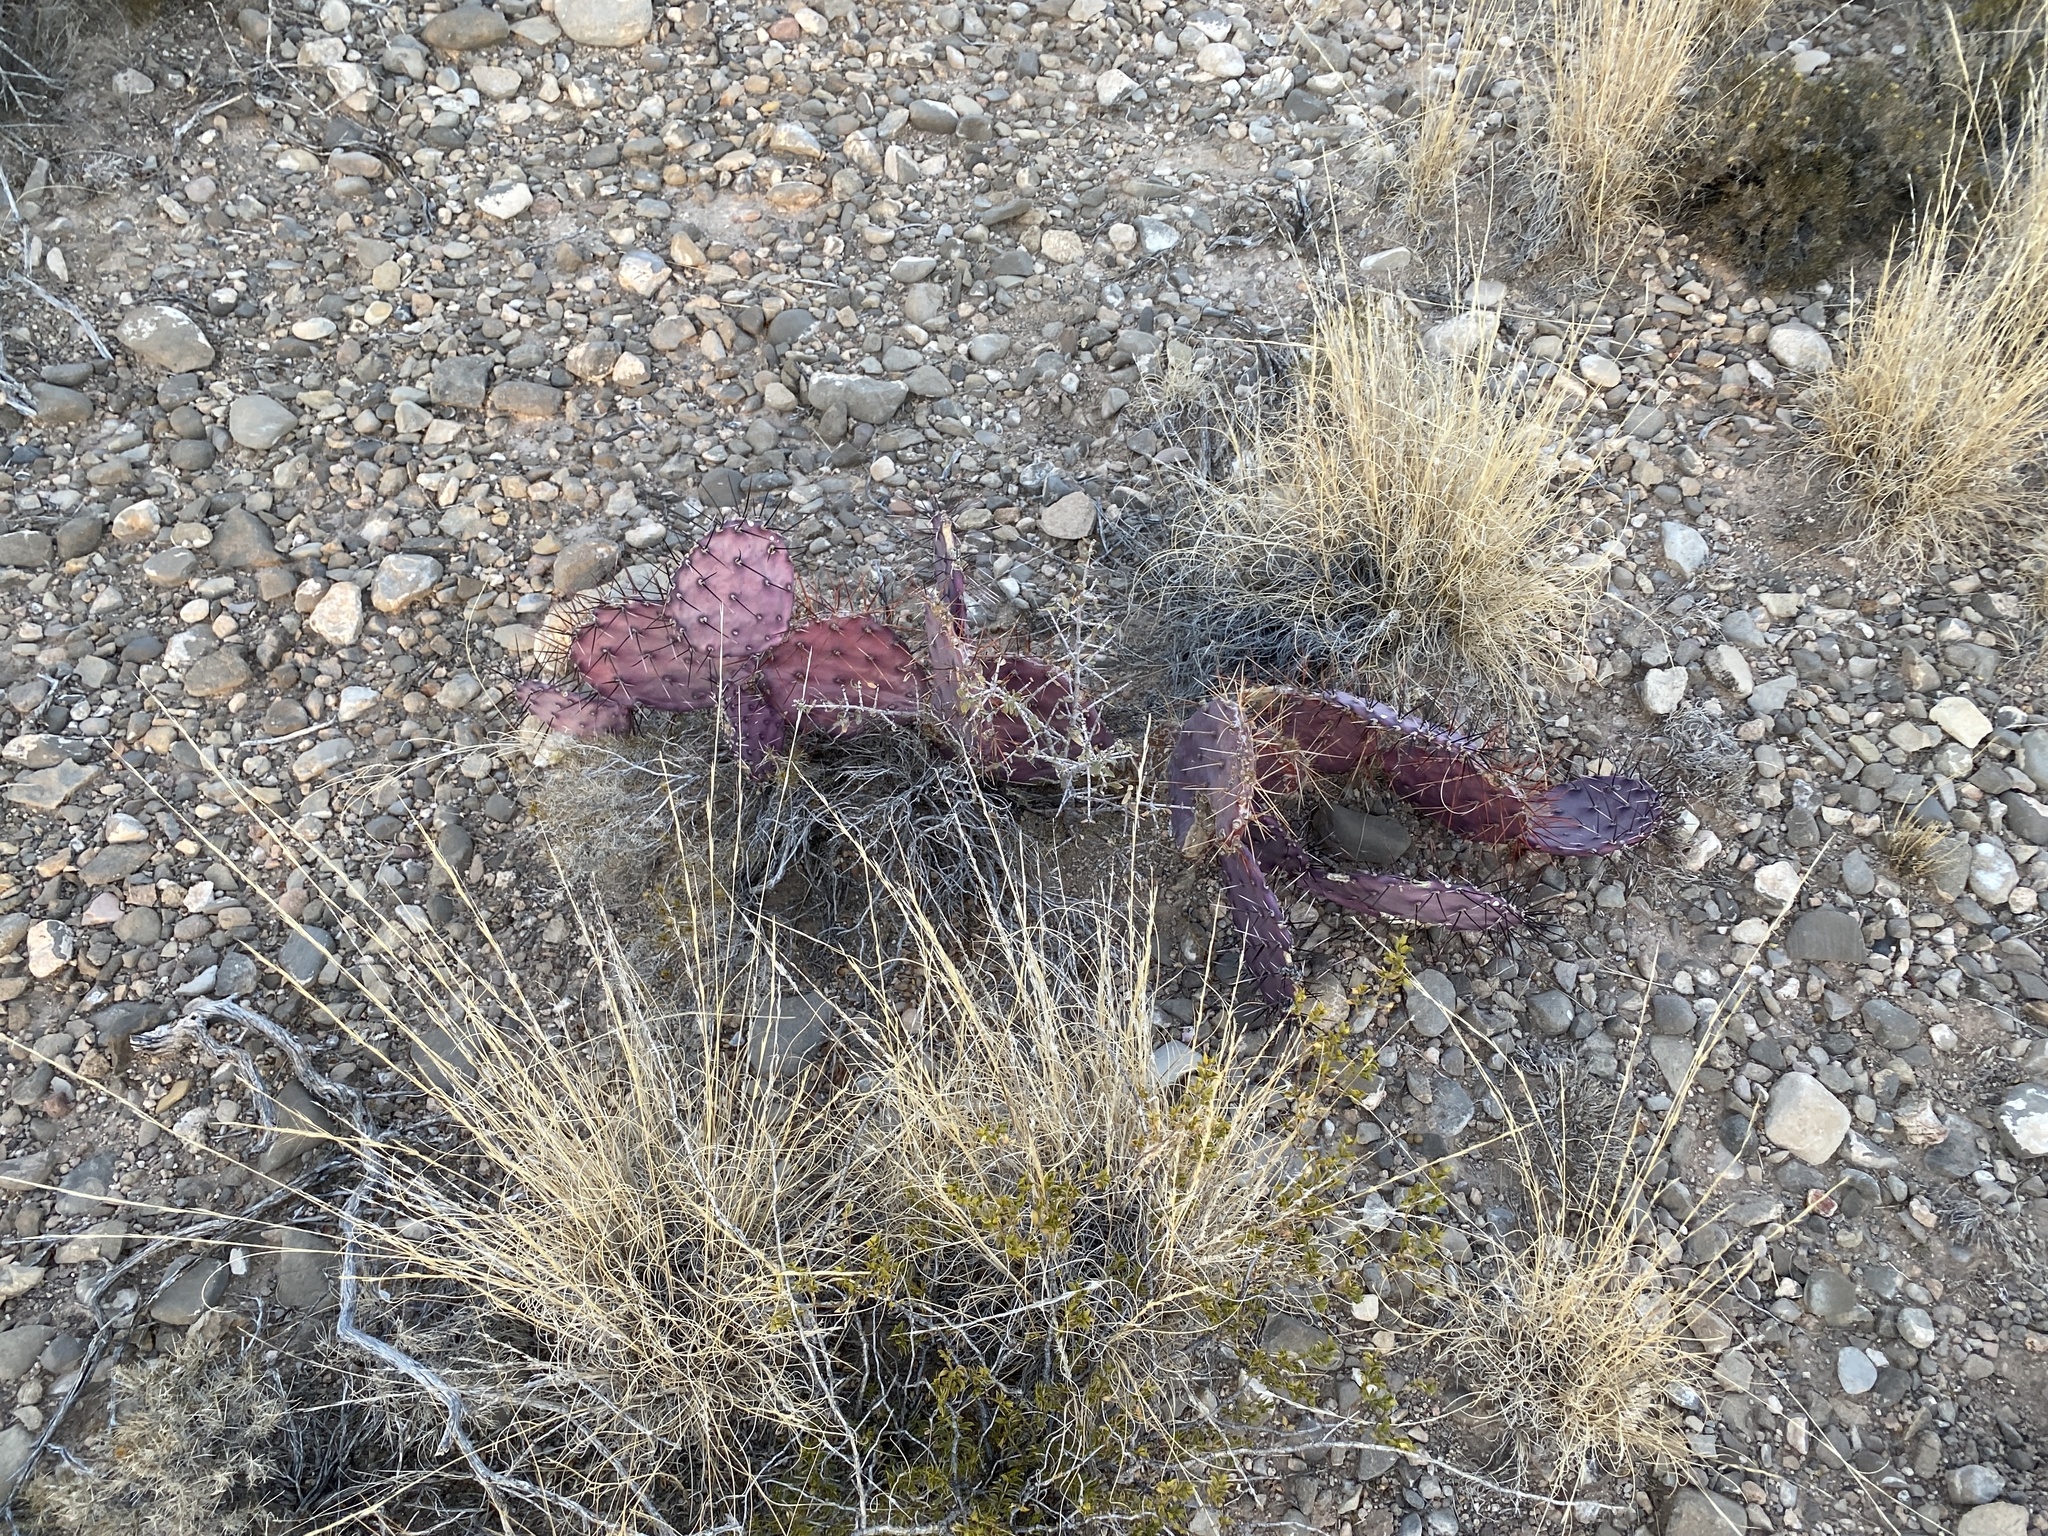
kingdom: Plantae
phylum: Tracheophyta
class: Magnoliopsida
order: Caryophyllales
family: Cactaceae
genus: Opuntia
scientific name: Opuntia macrocentra
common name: Purple prickly-pear
